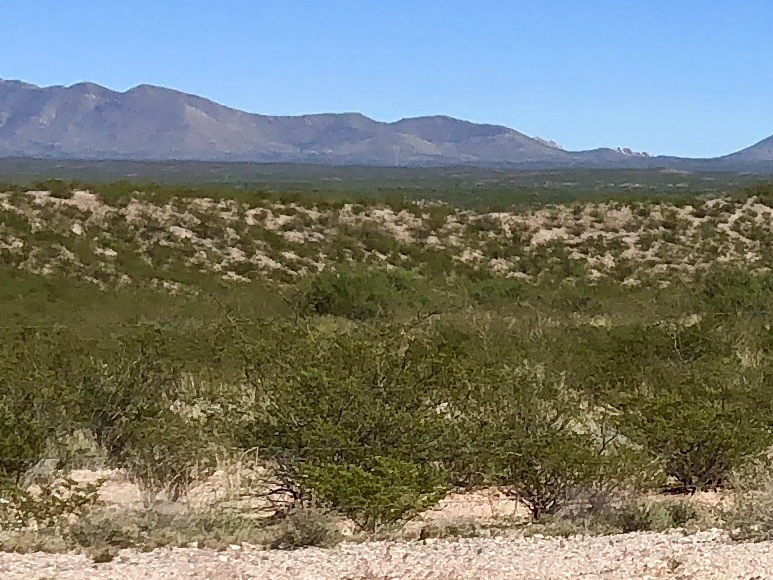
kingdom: Plantae
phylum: Tracheophyta
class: Magnoliopsida
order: Zygophyllales
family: Zygophyllaceae
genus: Larrea
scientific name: Larrea tridentata
